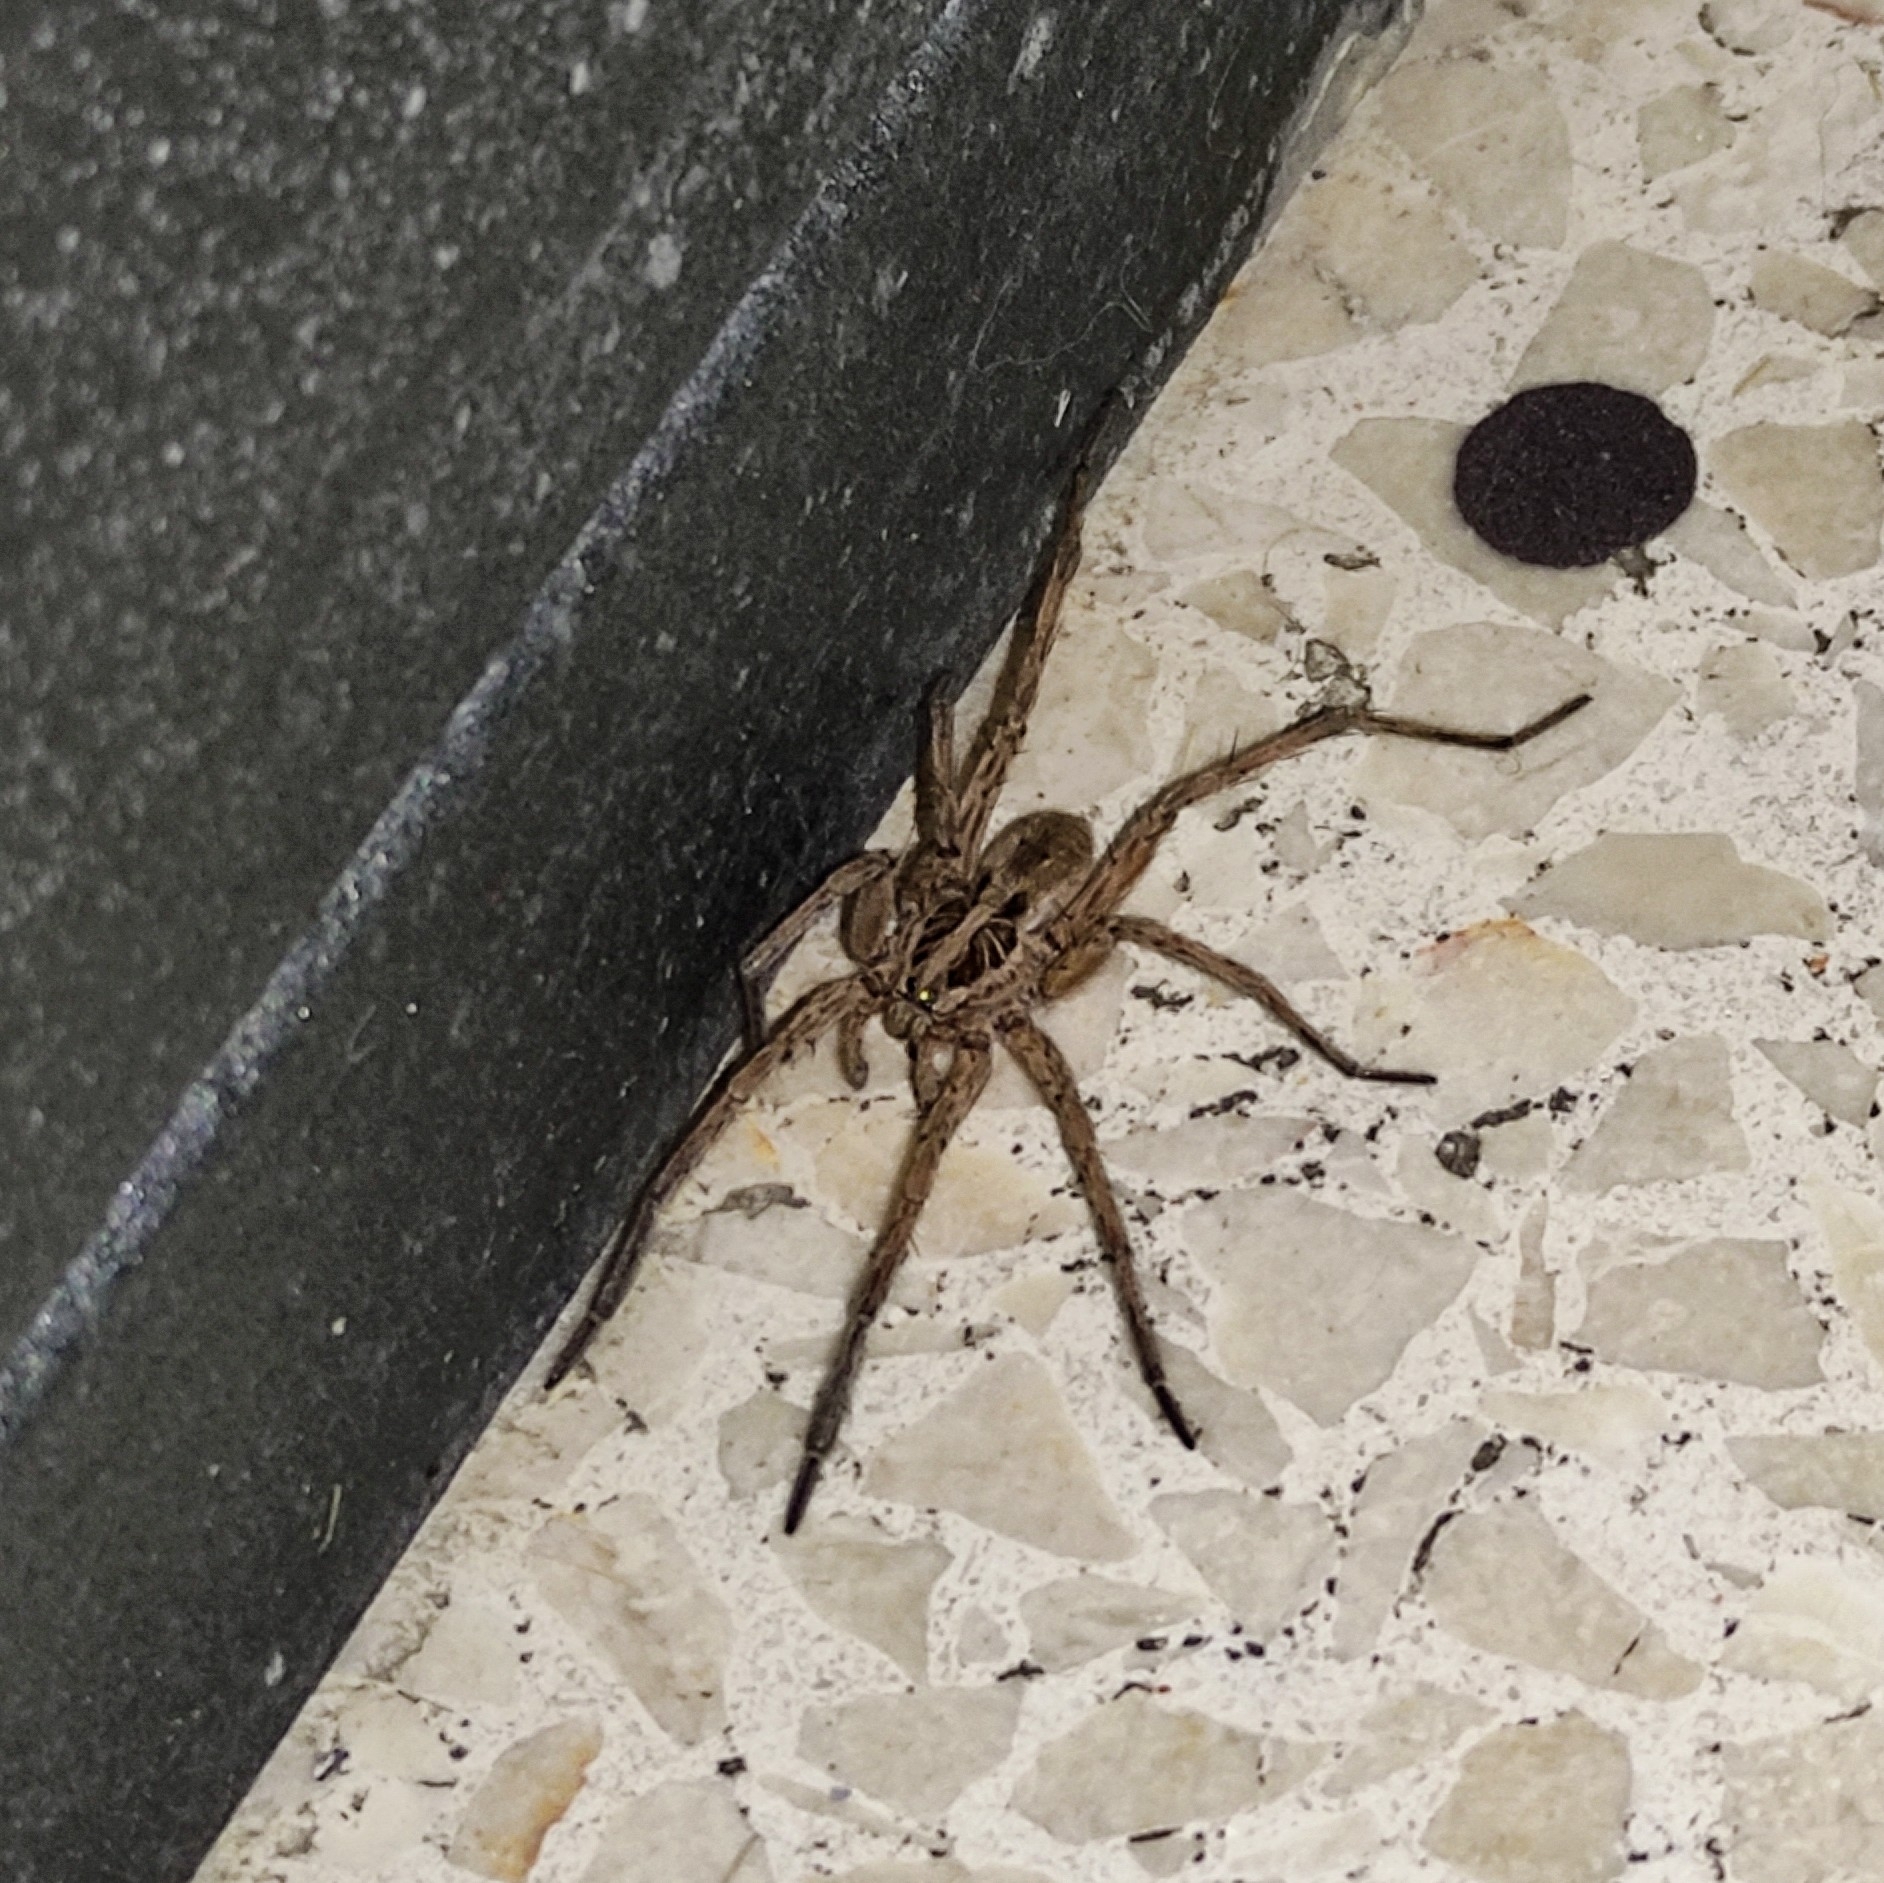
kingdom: Animalia
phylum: Arthropoda
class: Arachnida
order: Araneae
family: Lycosidae
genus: Hogna
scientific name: Hogna radiata
